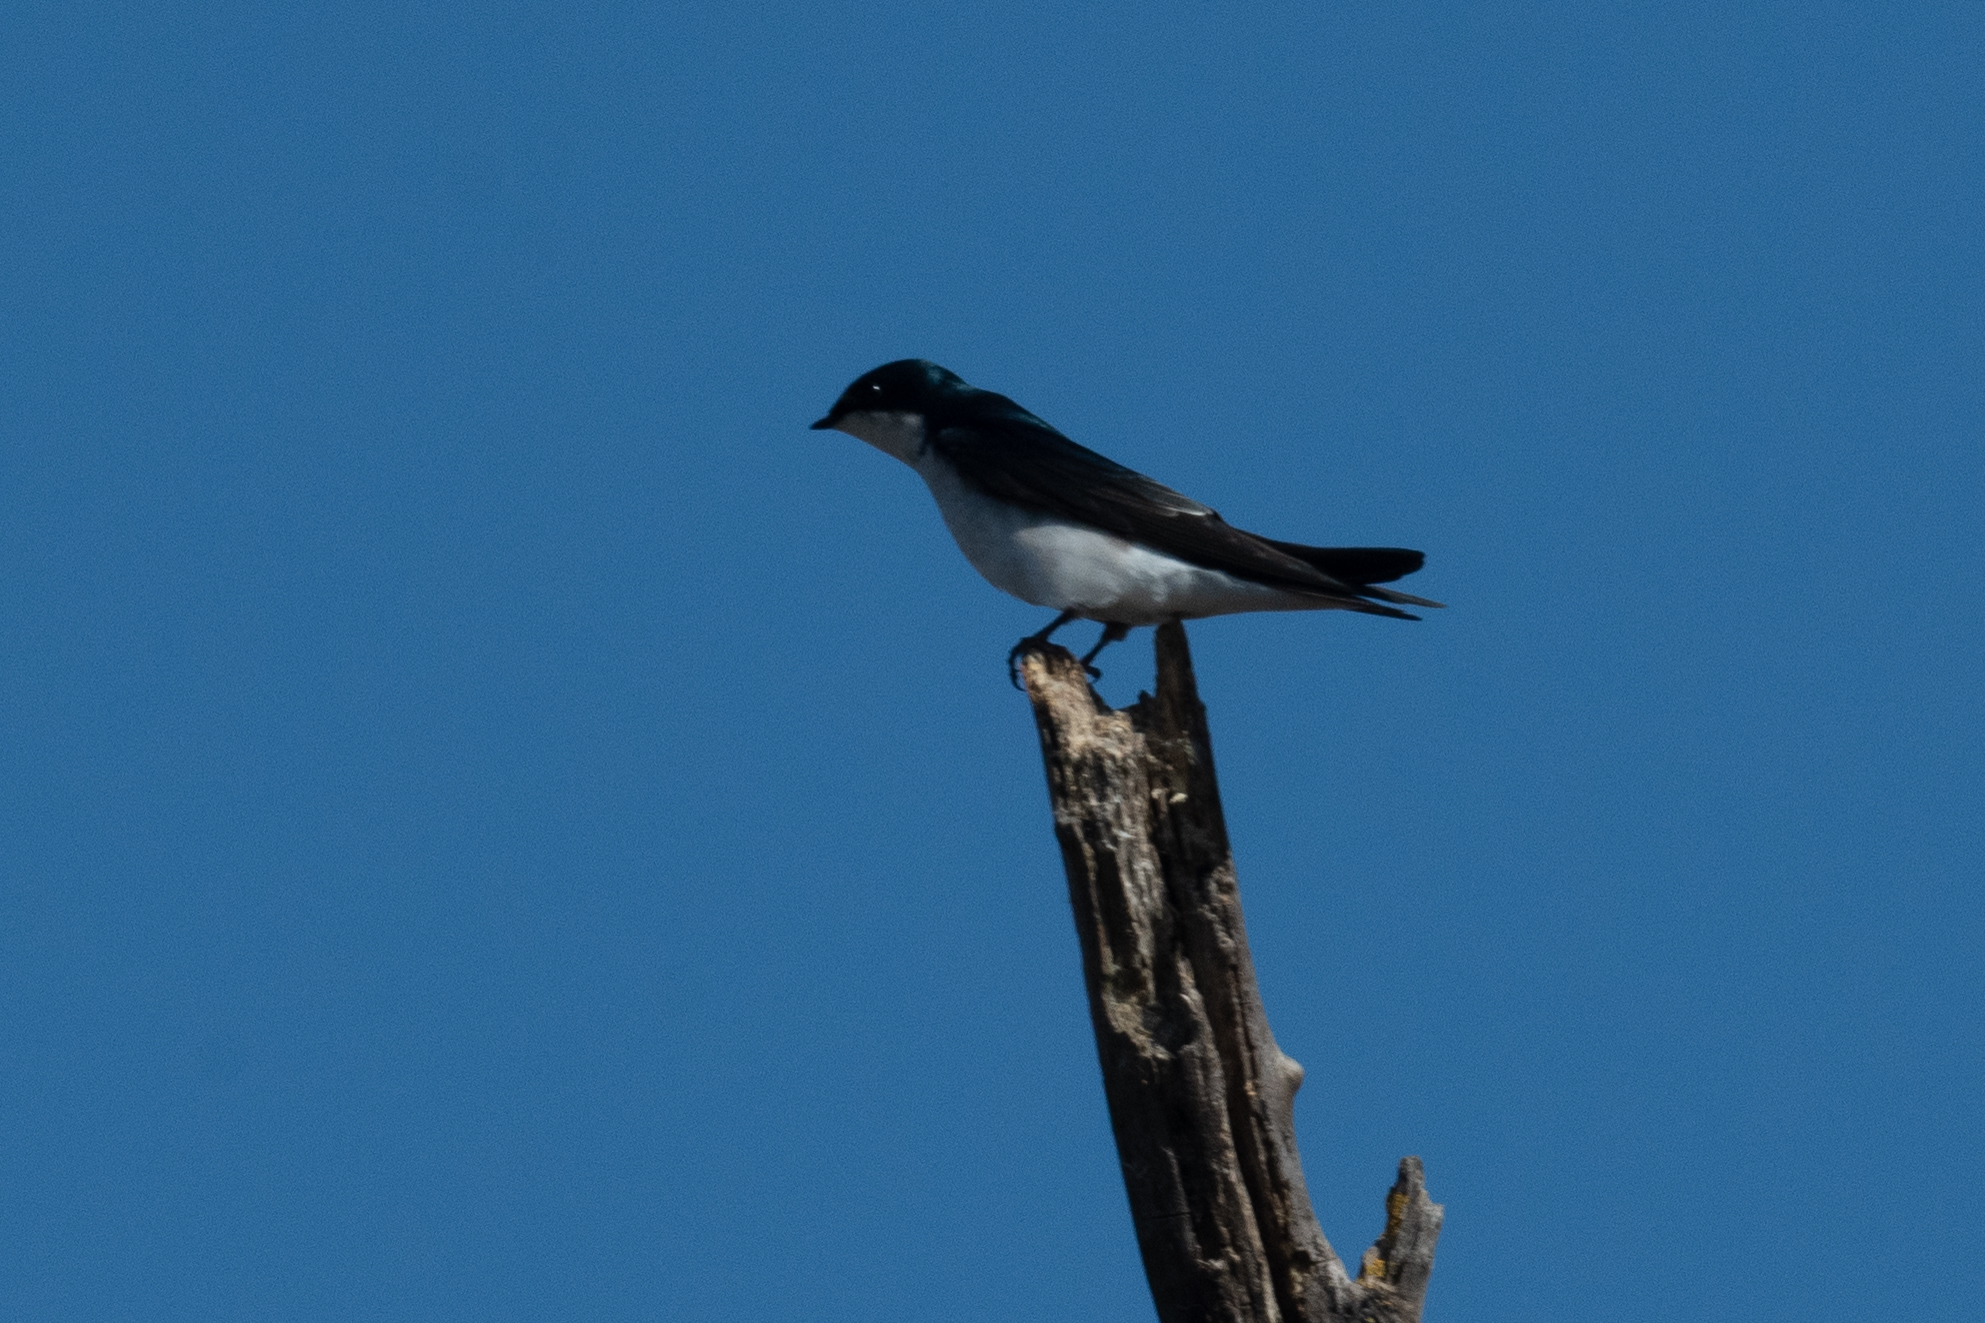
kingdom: Animalia
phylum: Chordata
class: Aves
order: Passeriformes
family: Hirundinidae
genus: Tachycineta
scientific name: Tachycineta bicolor
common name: Tree swallow
